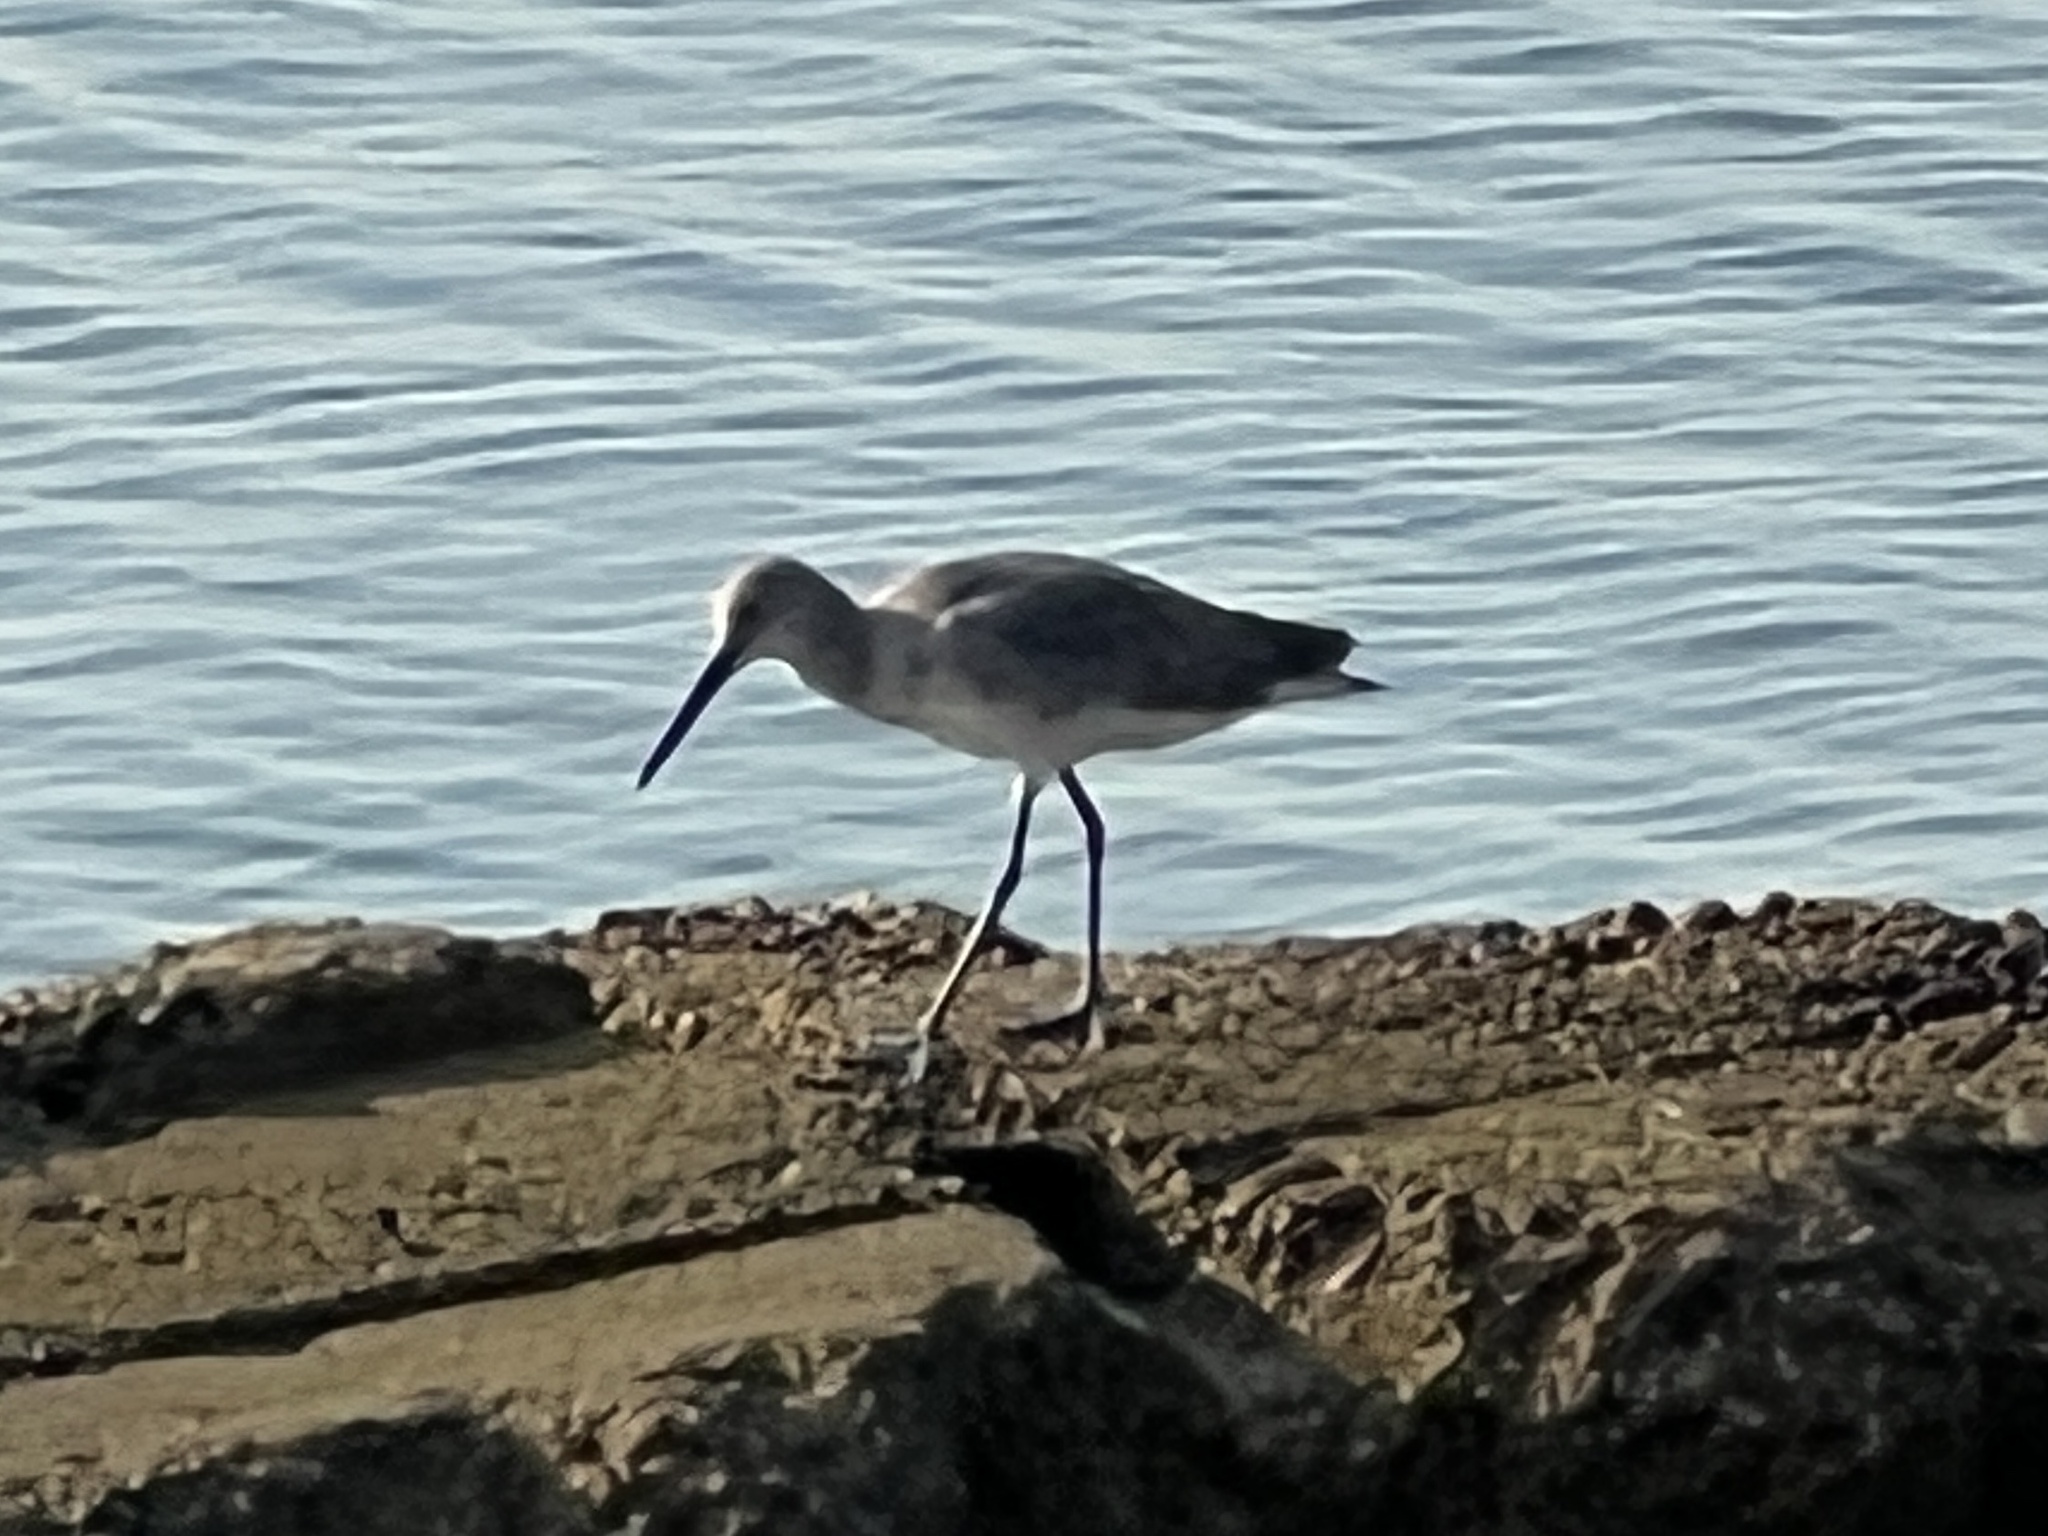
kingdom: Animalia
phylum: Chordata
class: Aves
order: Charadriiformes
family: Scolopacidae
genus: Tringa
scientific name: Tringa semipalmata
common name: Willet
